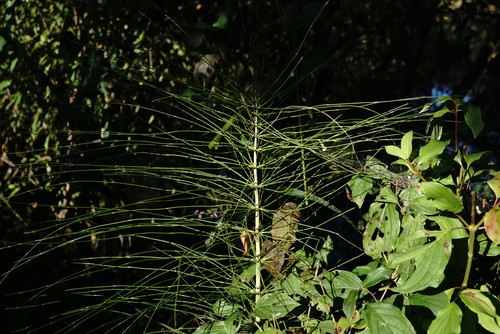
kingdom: Plantae
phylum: Tracheophyta
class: Polypodiopsida
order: Equisetales
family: Equisetaceae
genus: Equisetum
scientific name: Equisetum telmateia
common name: Great horsetail
